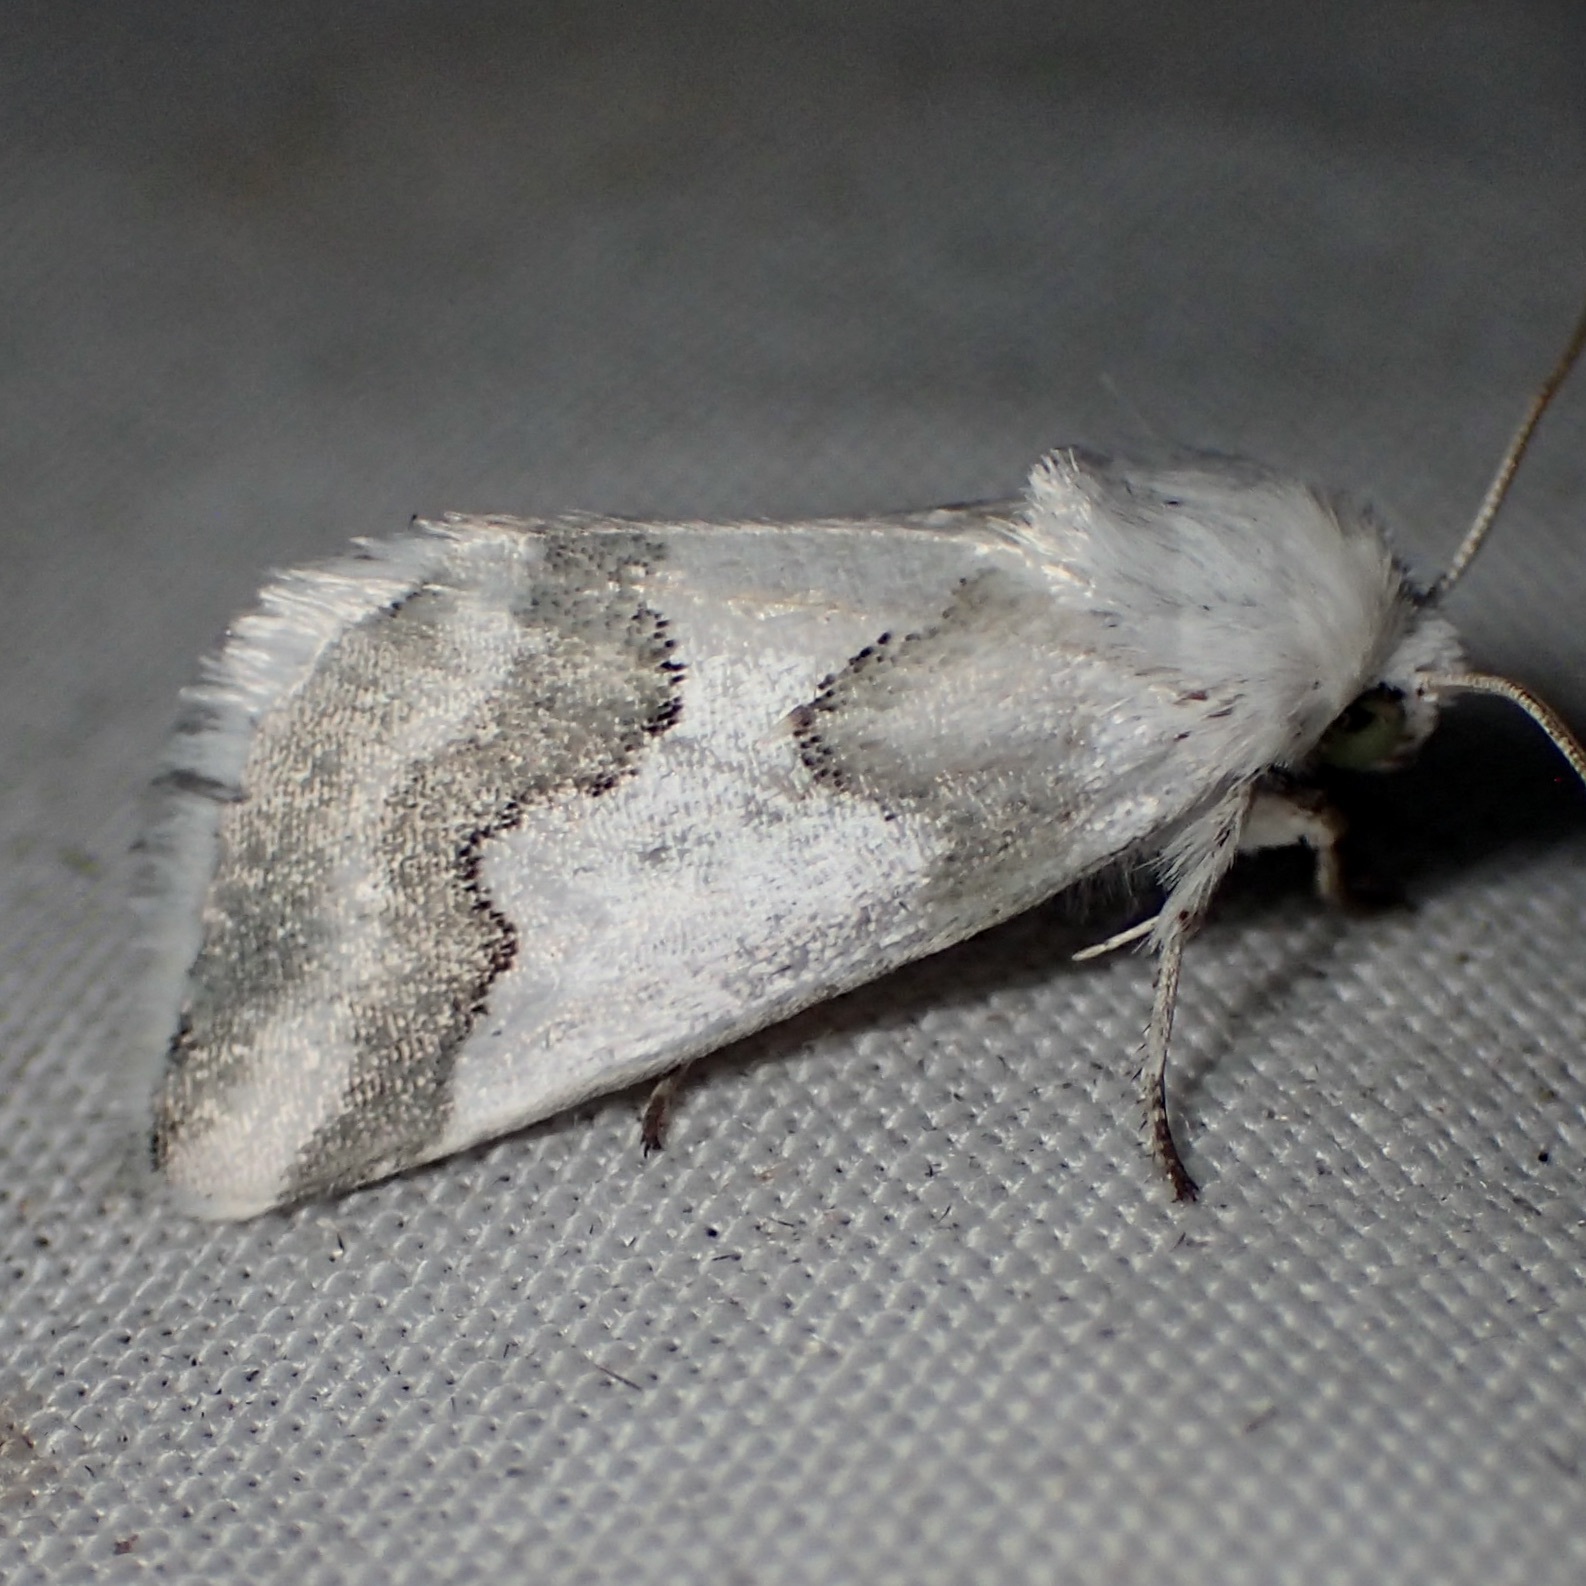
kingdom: Animalia
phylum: Arthropoda
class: Insecta
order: Lepidoptera
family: Noctuidae
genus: Schinia
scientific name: Schinia hulstia
